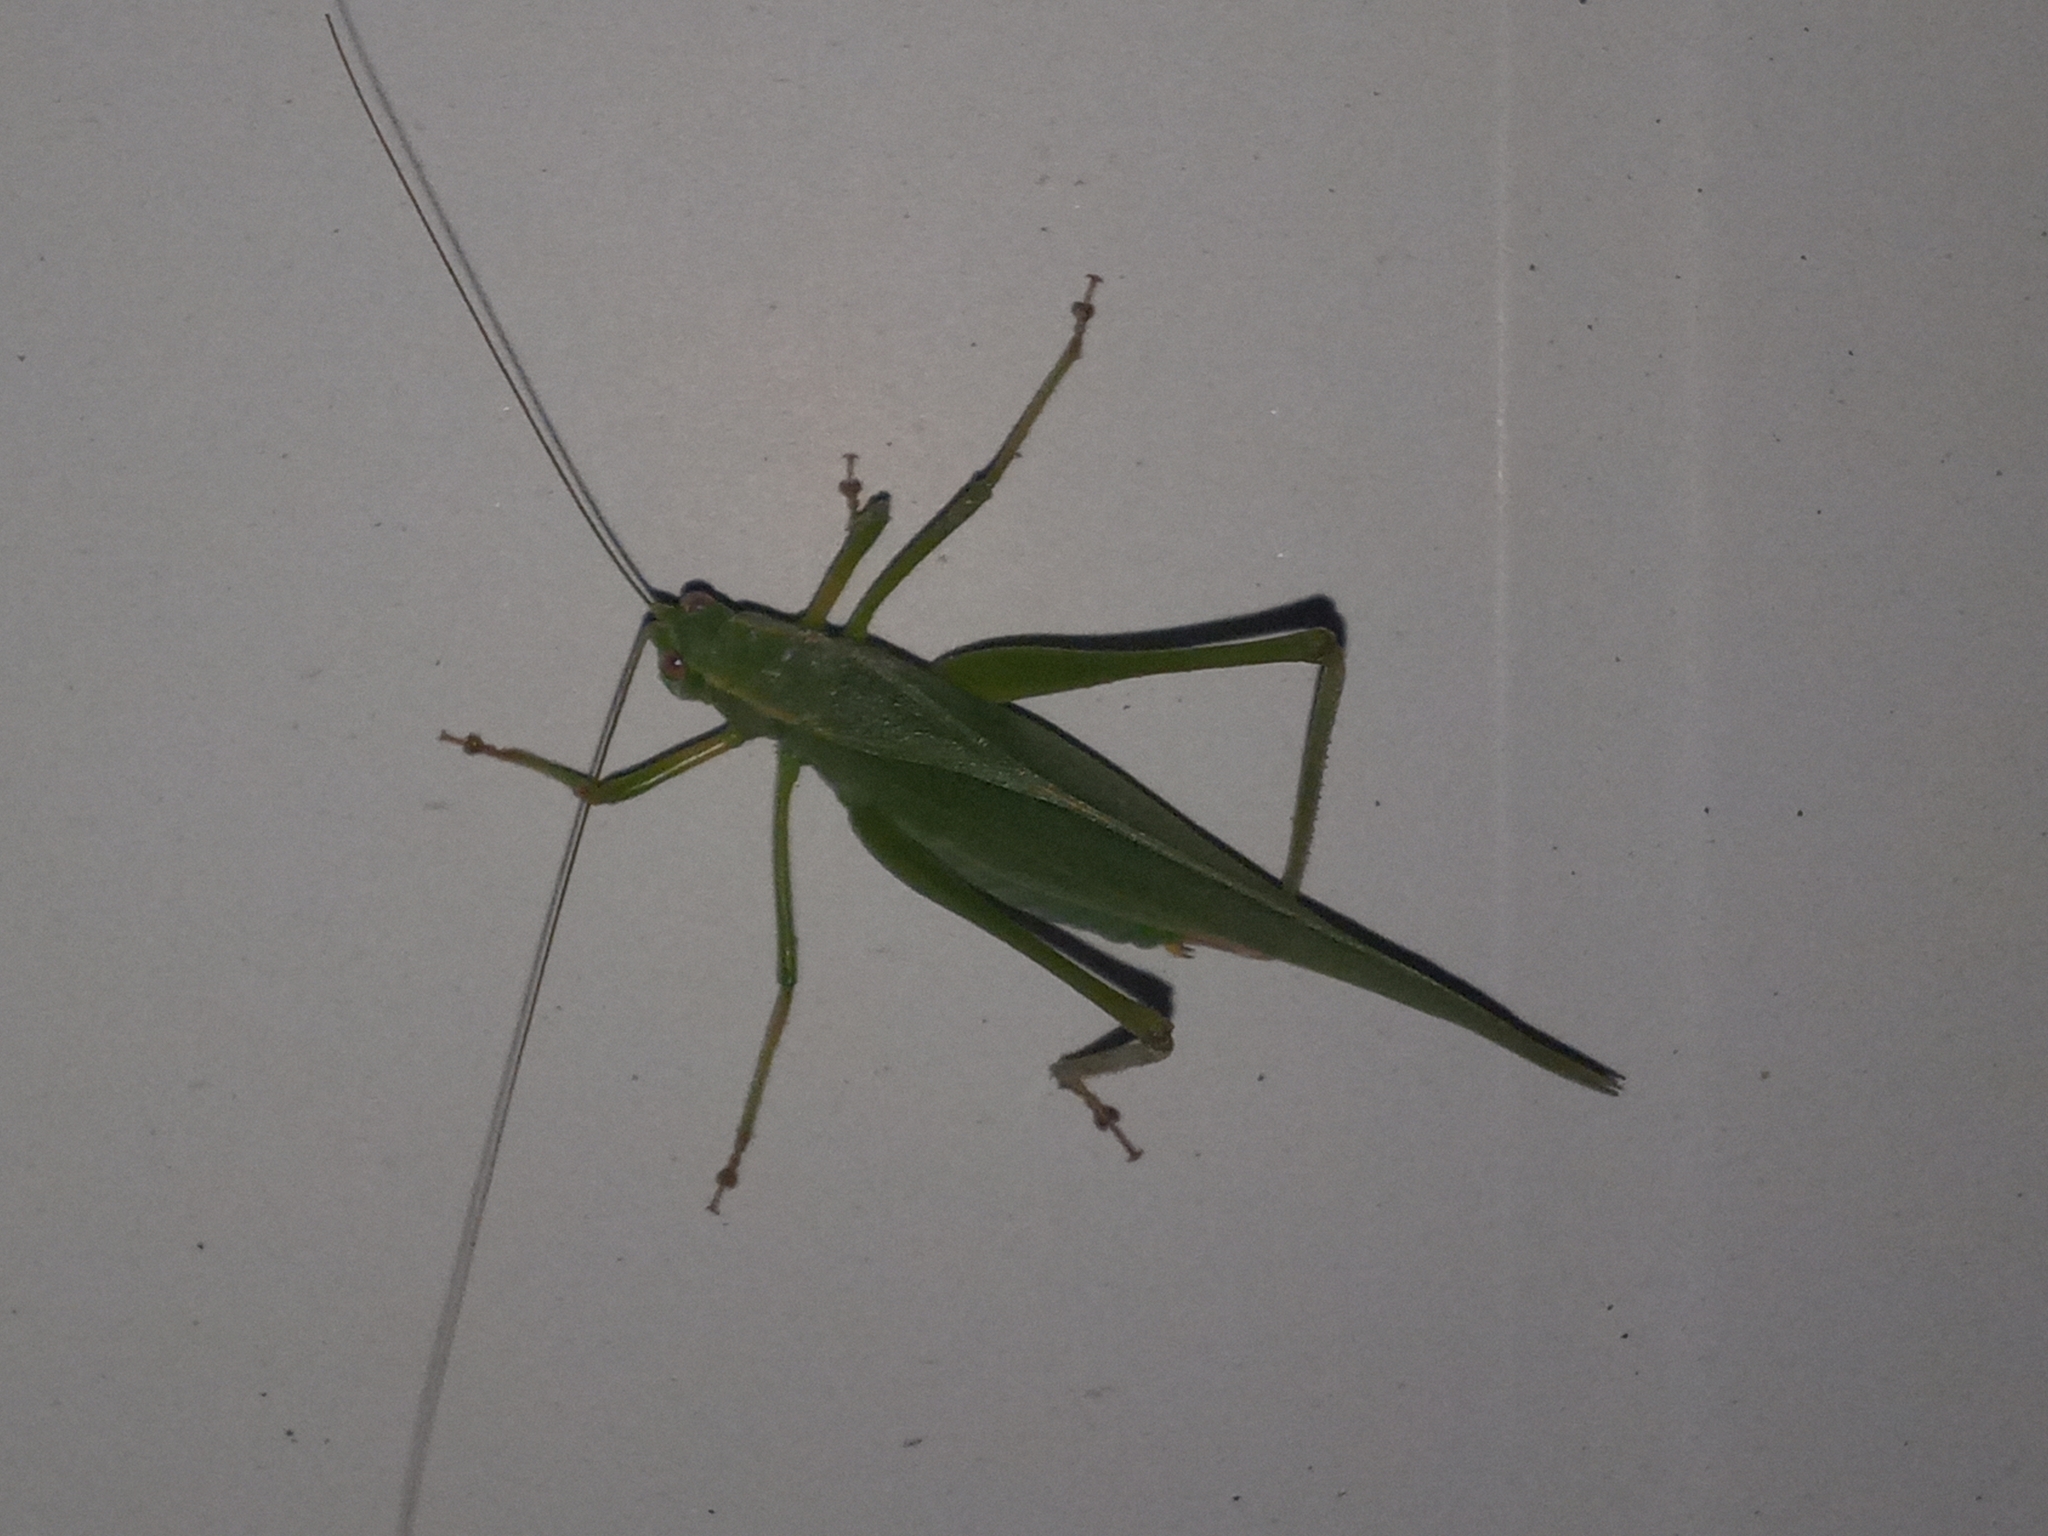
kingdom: Animalia
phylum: Arthropoda
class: Insecta
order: Orthoptera
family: Tettigoniidae
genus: Scudderia
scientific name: Scudderia furcata
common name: Fork-tailed bush katydid
